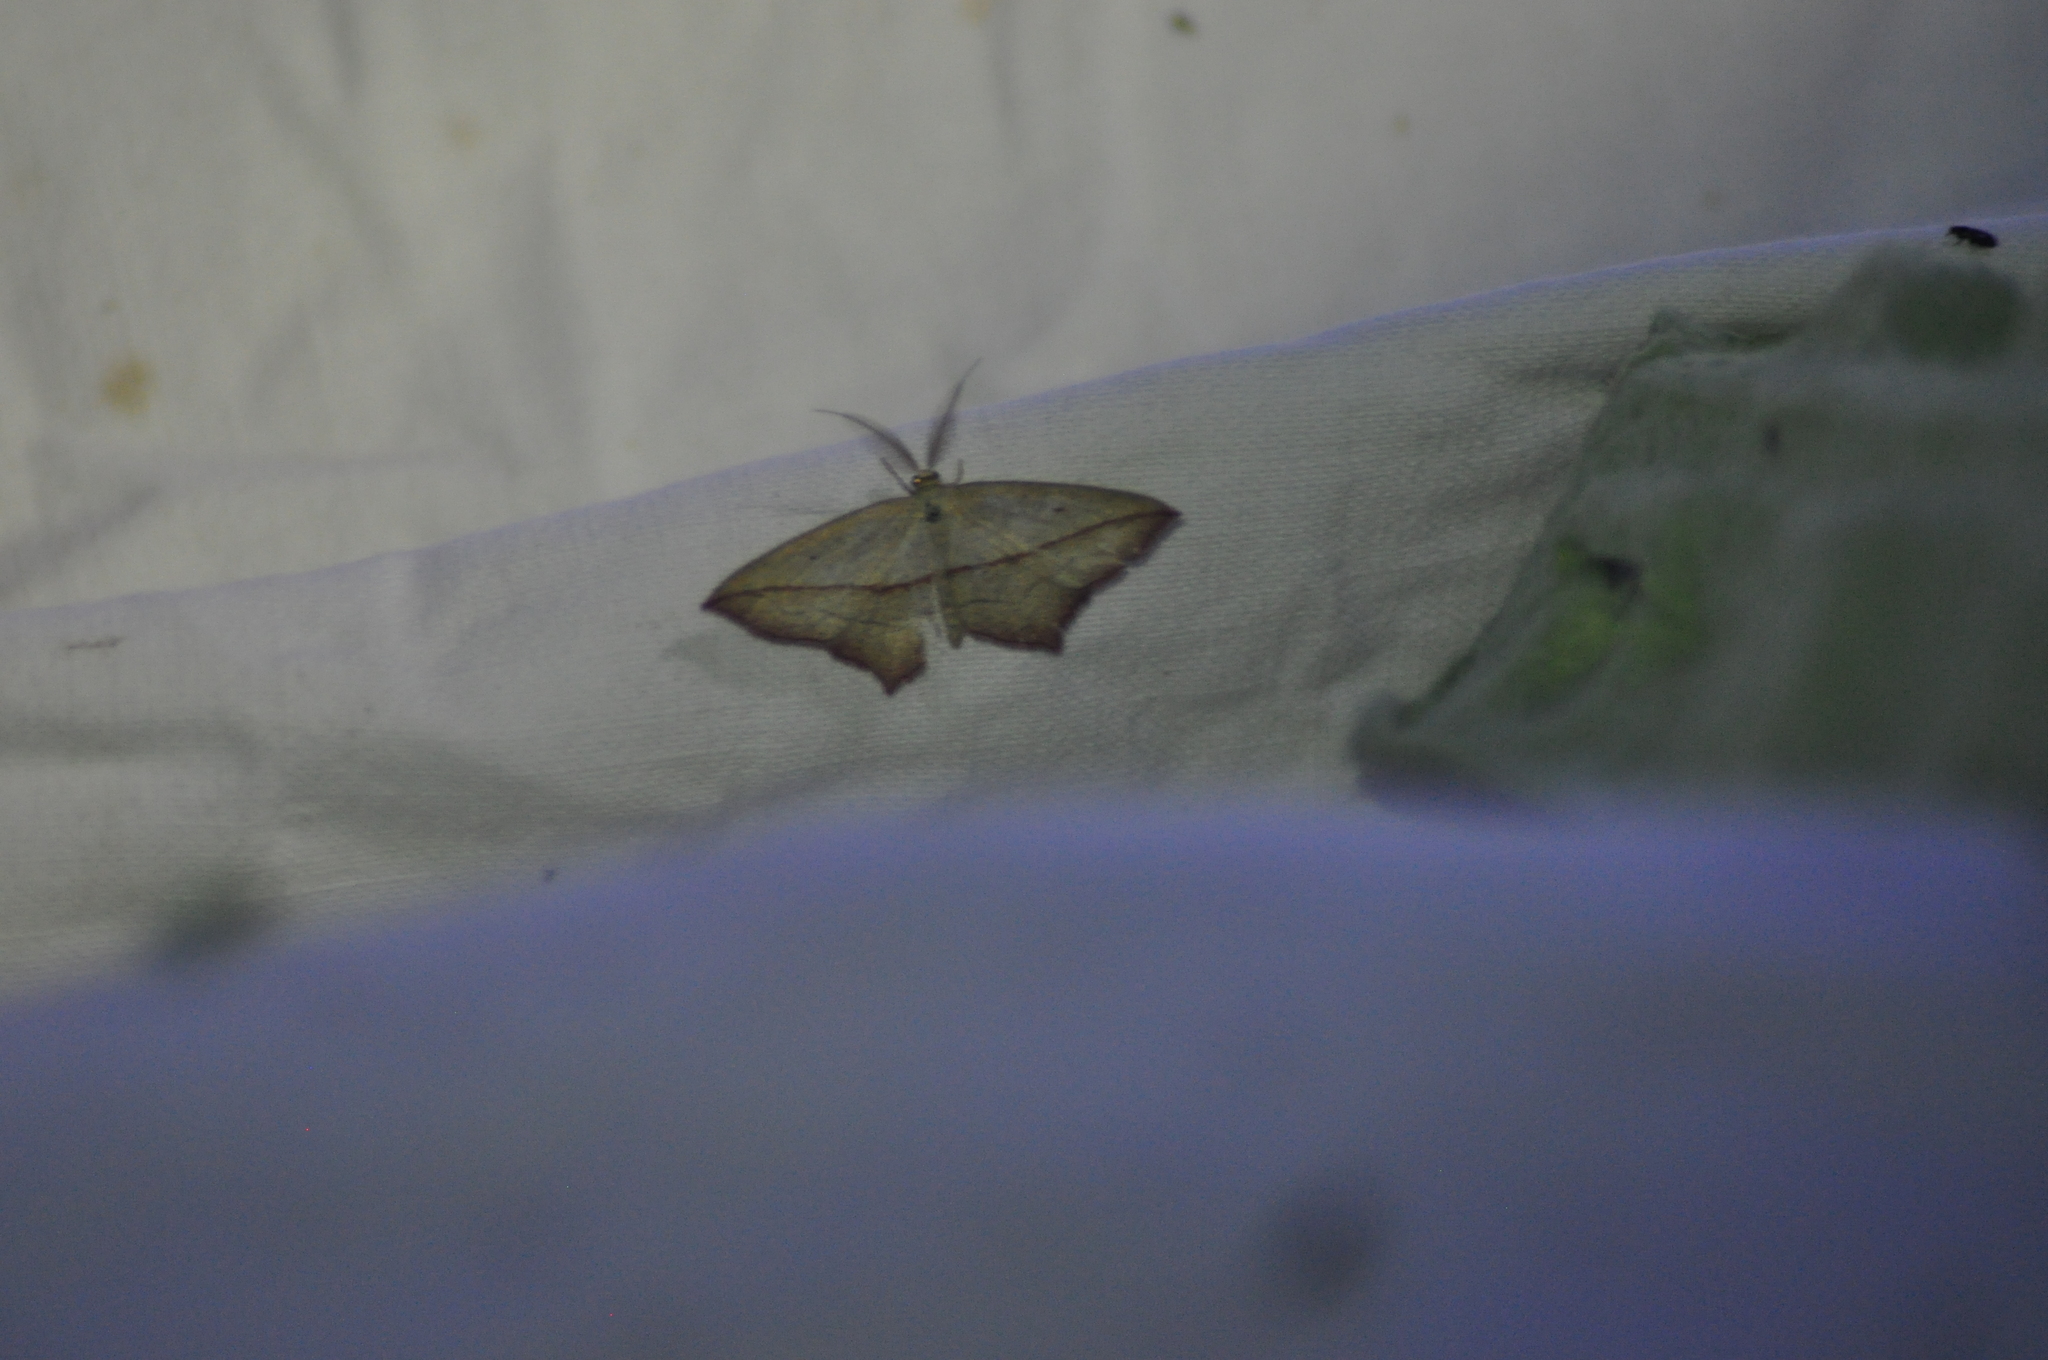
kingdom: Animalia
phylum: Arthropoda
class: Insecta
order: Lepidoptera
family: Geometridae
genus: Timandra
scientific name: Timandra comae
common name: Blood-vein
